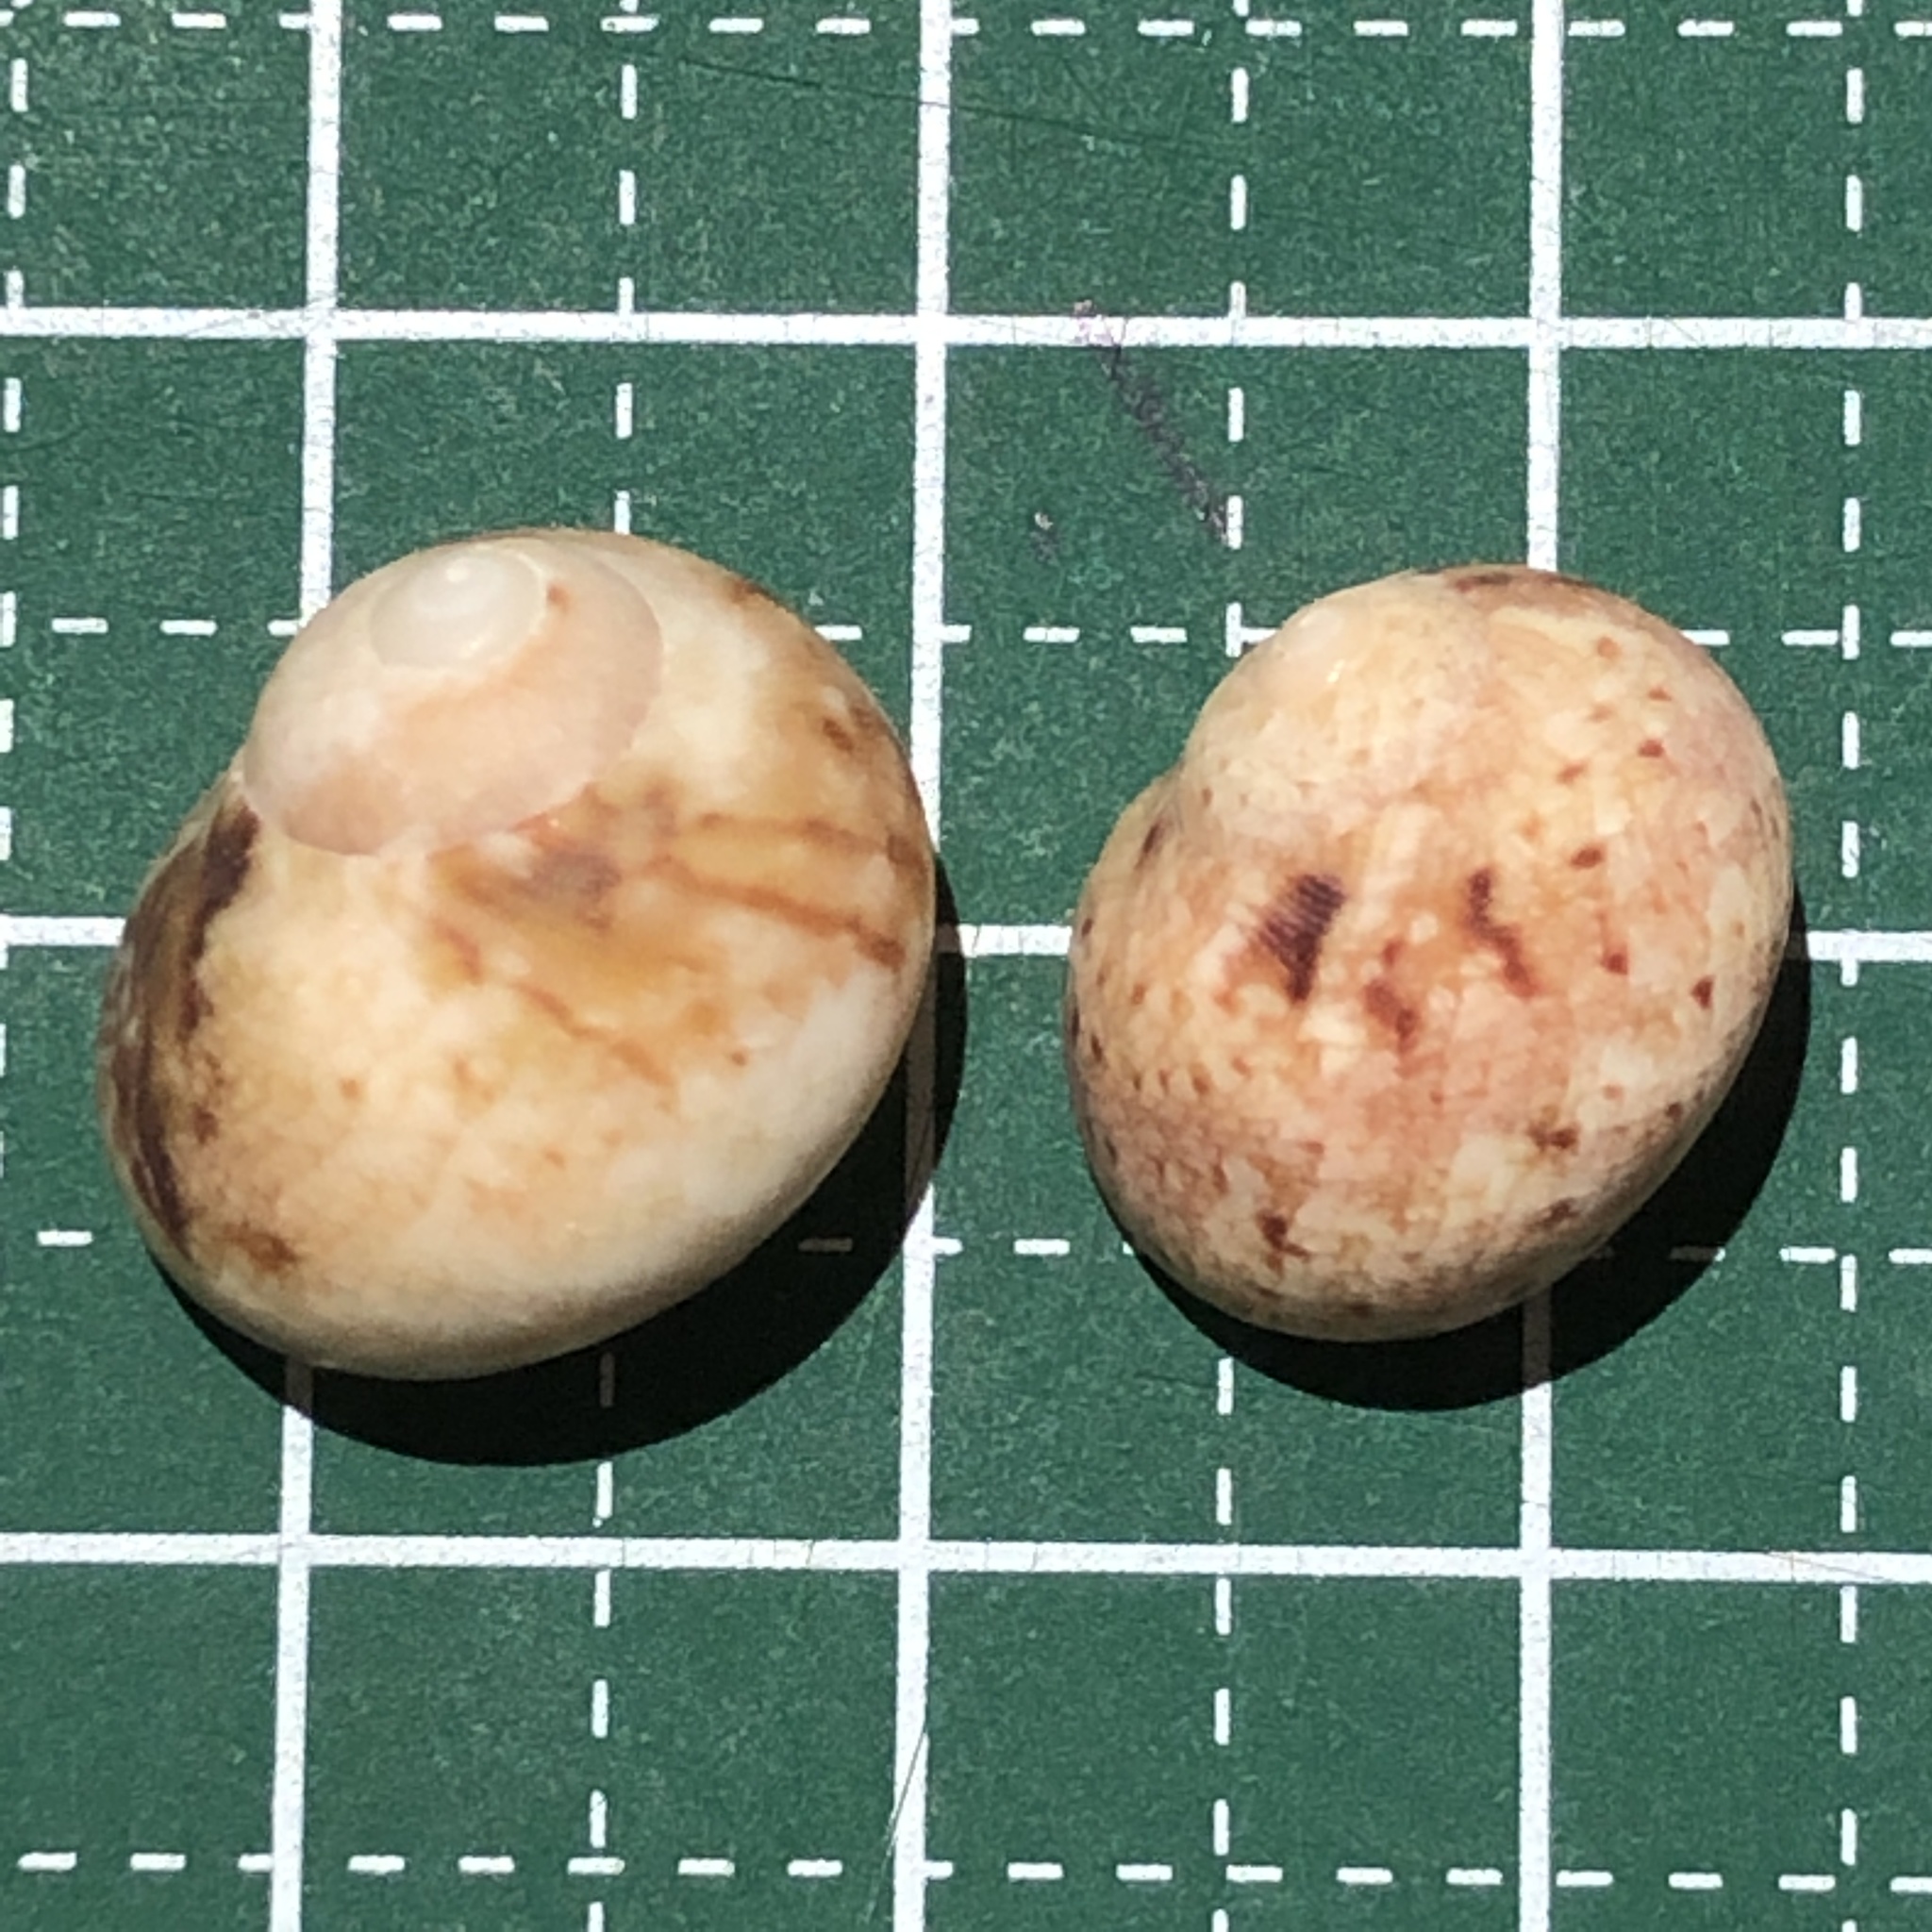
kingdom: Animalia
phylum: Mollusca
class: Gastropoda
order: Trochida
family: Trochidae
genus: Chrysostoma
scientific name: Chrysostoma paradoxum
